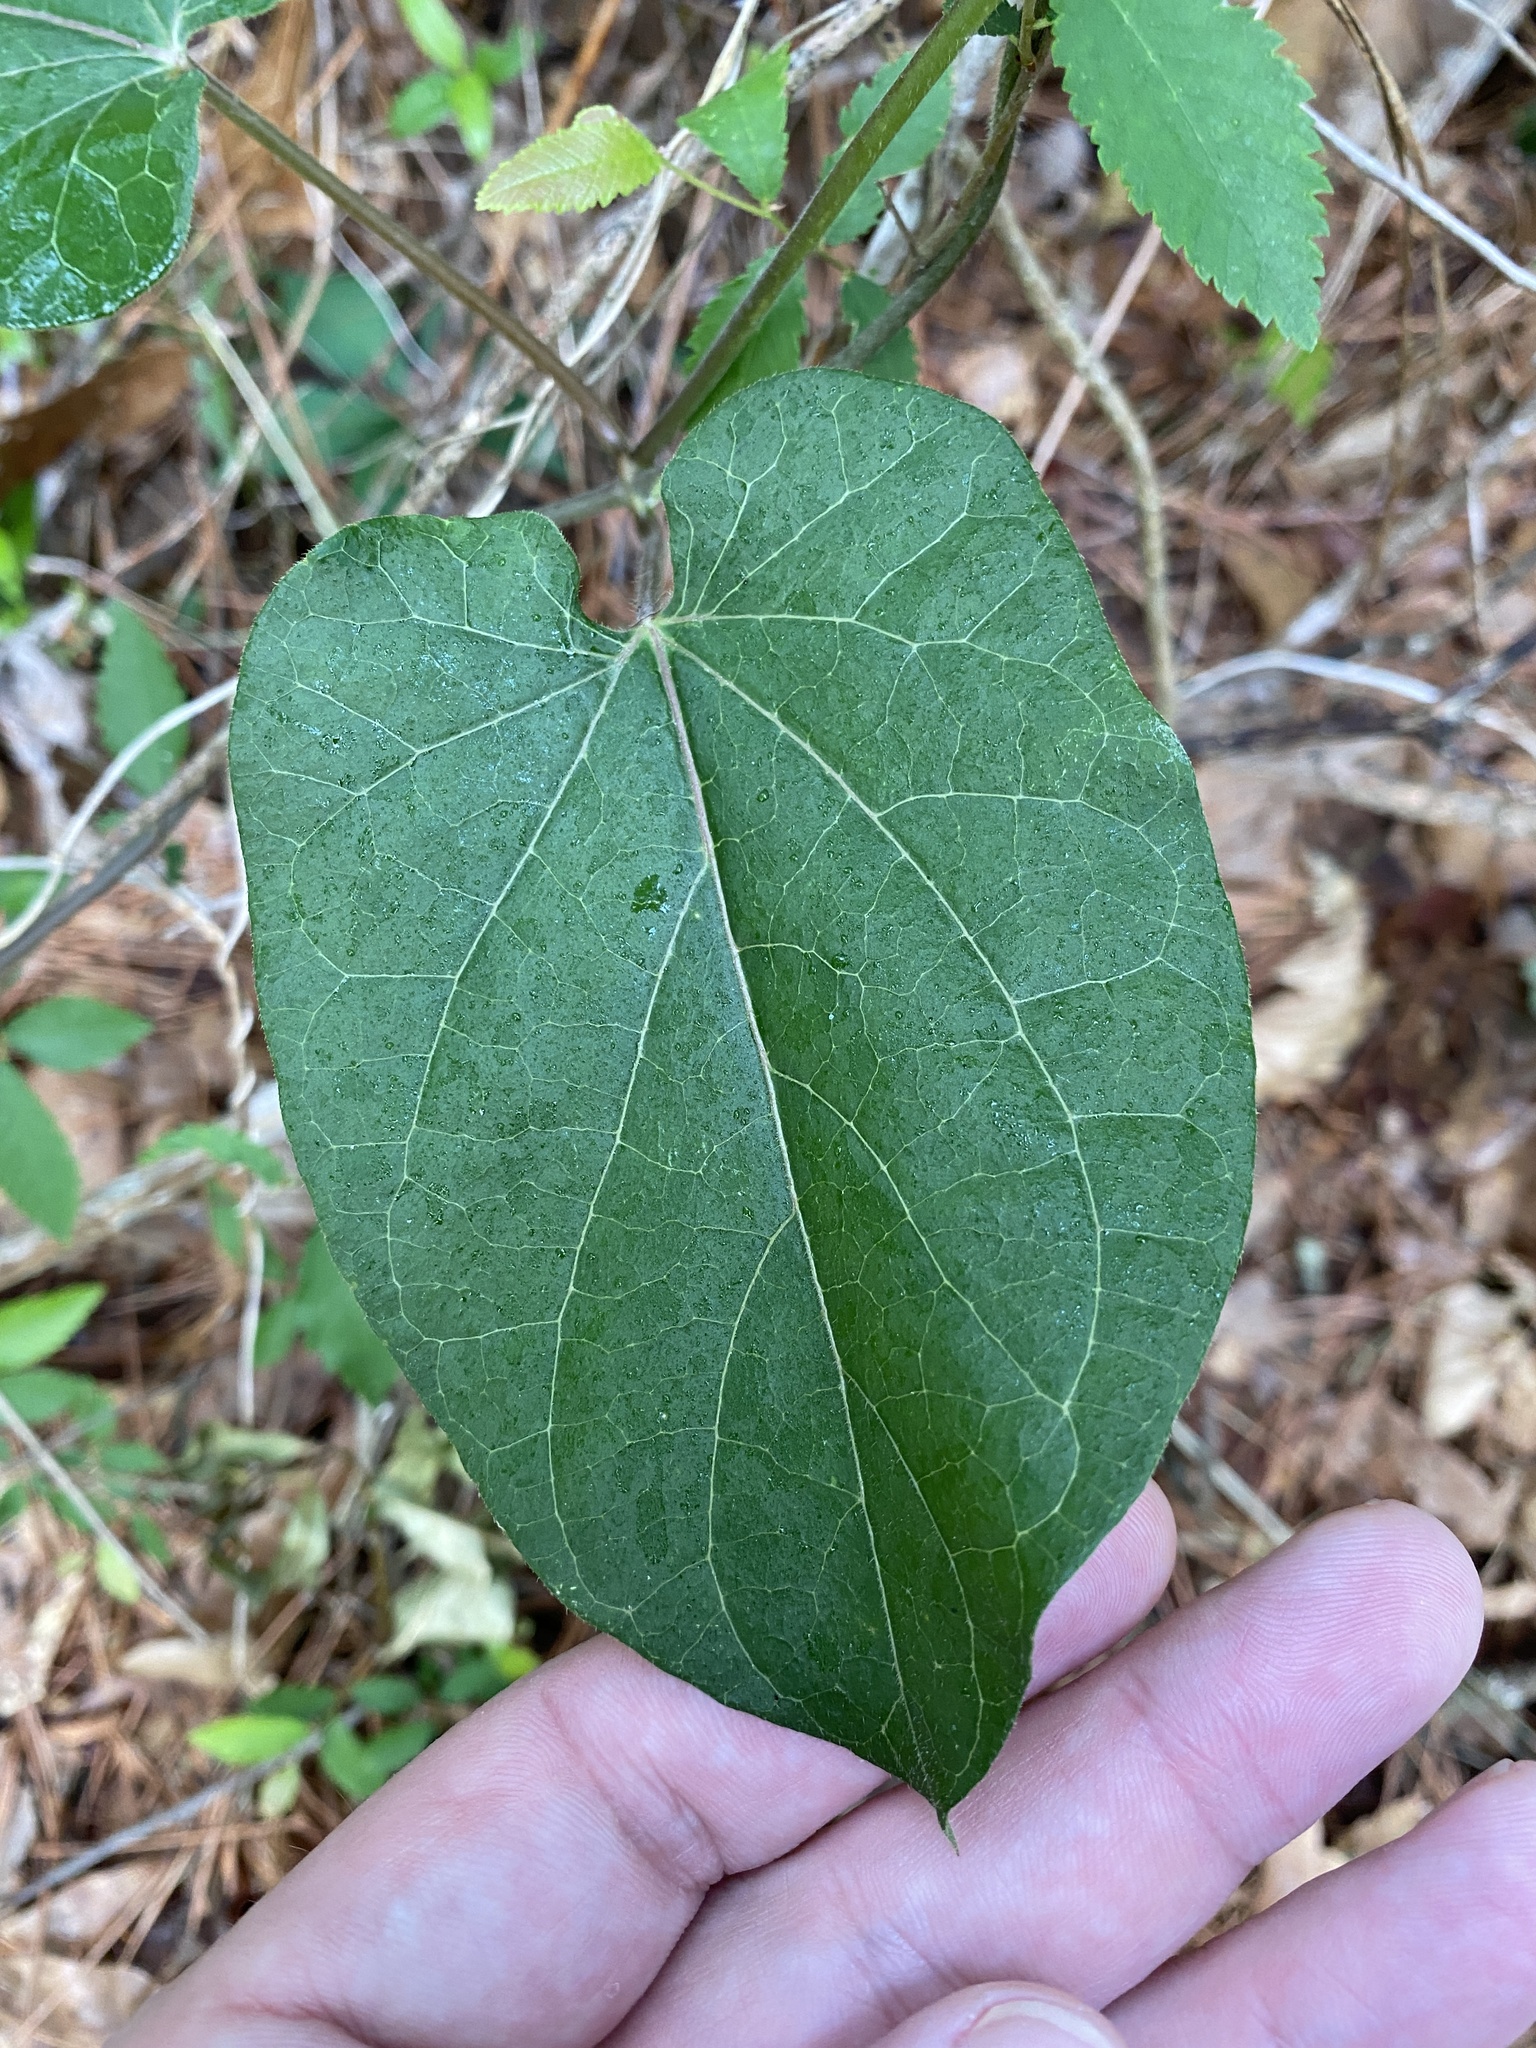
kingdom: Plantae
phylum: Tracheophyta
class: Magnoliopsida
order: Gentianales
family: Apocynaceae
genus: Gonolobus
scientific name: Gonolobus suberosus
